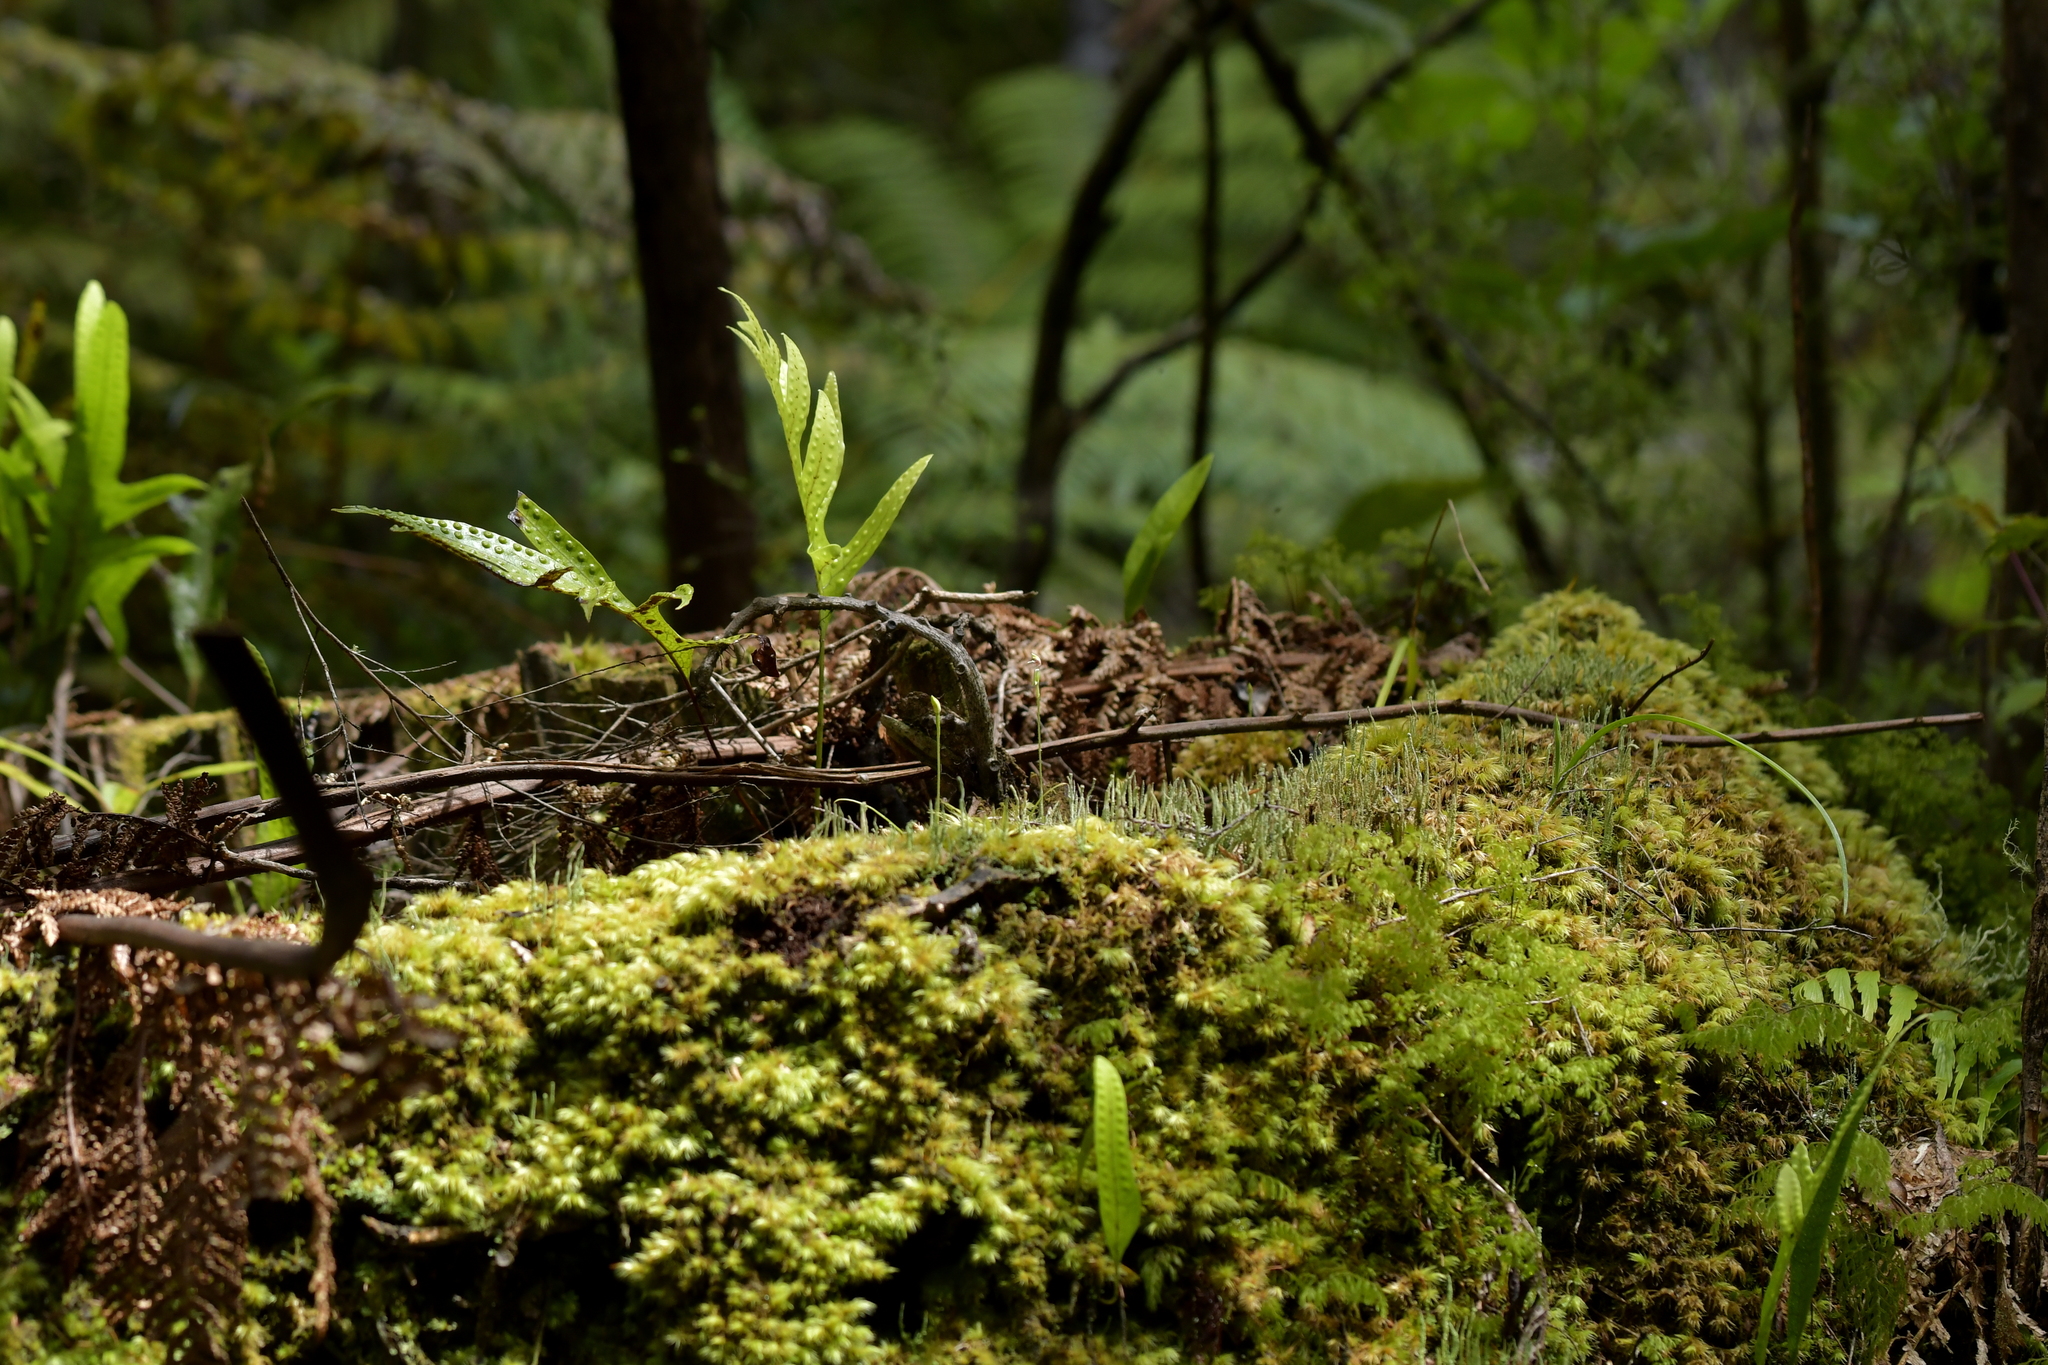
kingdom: Plantae
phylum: Tracheophyta
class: Liliopsida
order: Asparagales
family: Orchidaceae
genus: Caladenia
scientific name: Caladenia chlorostyla
